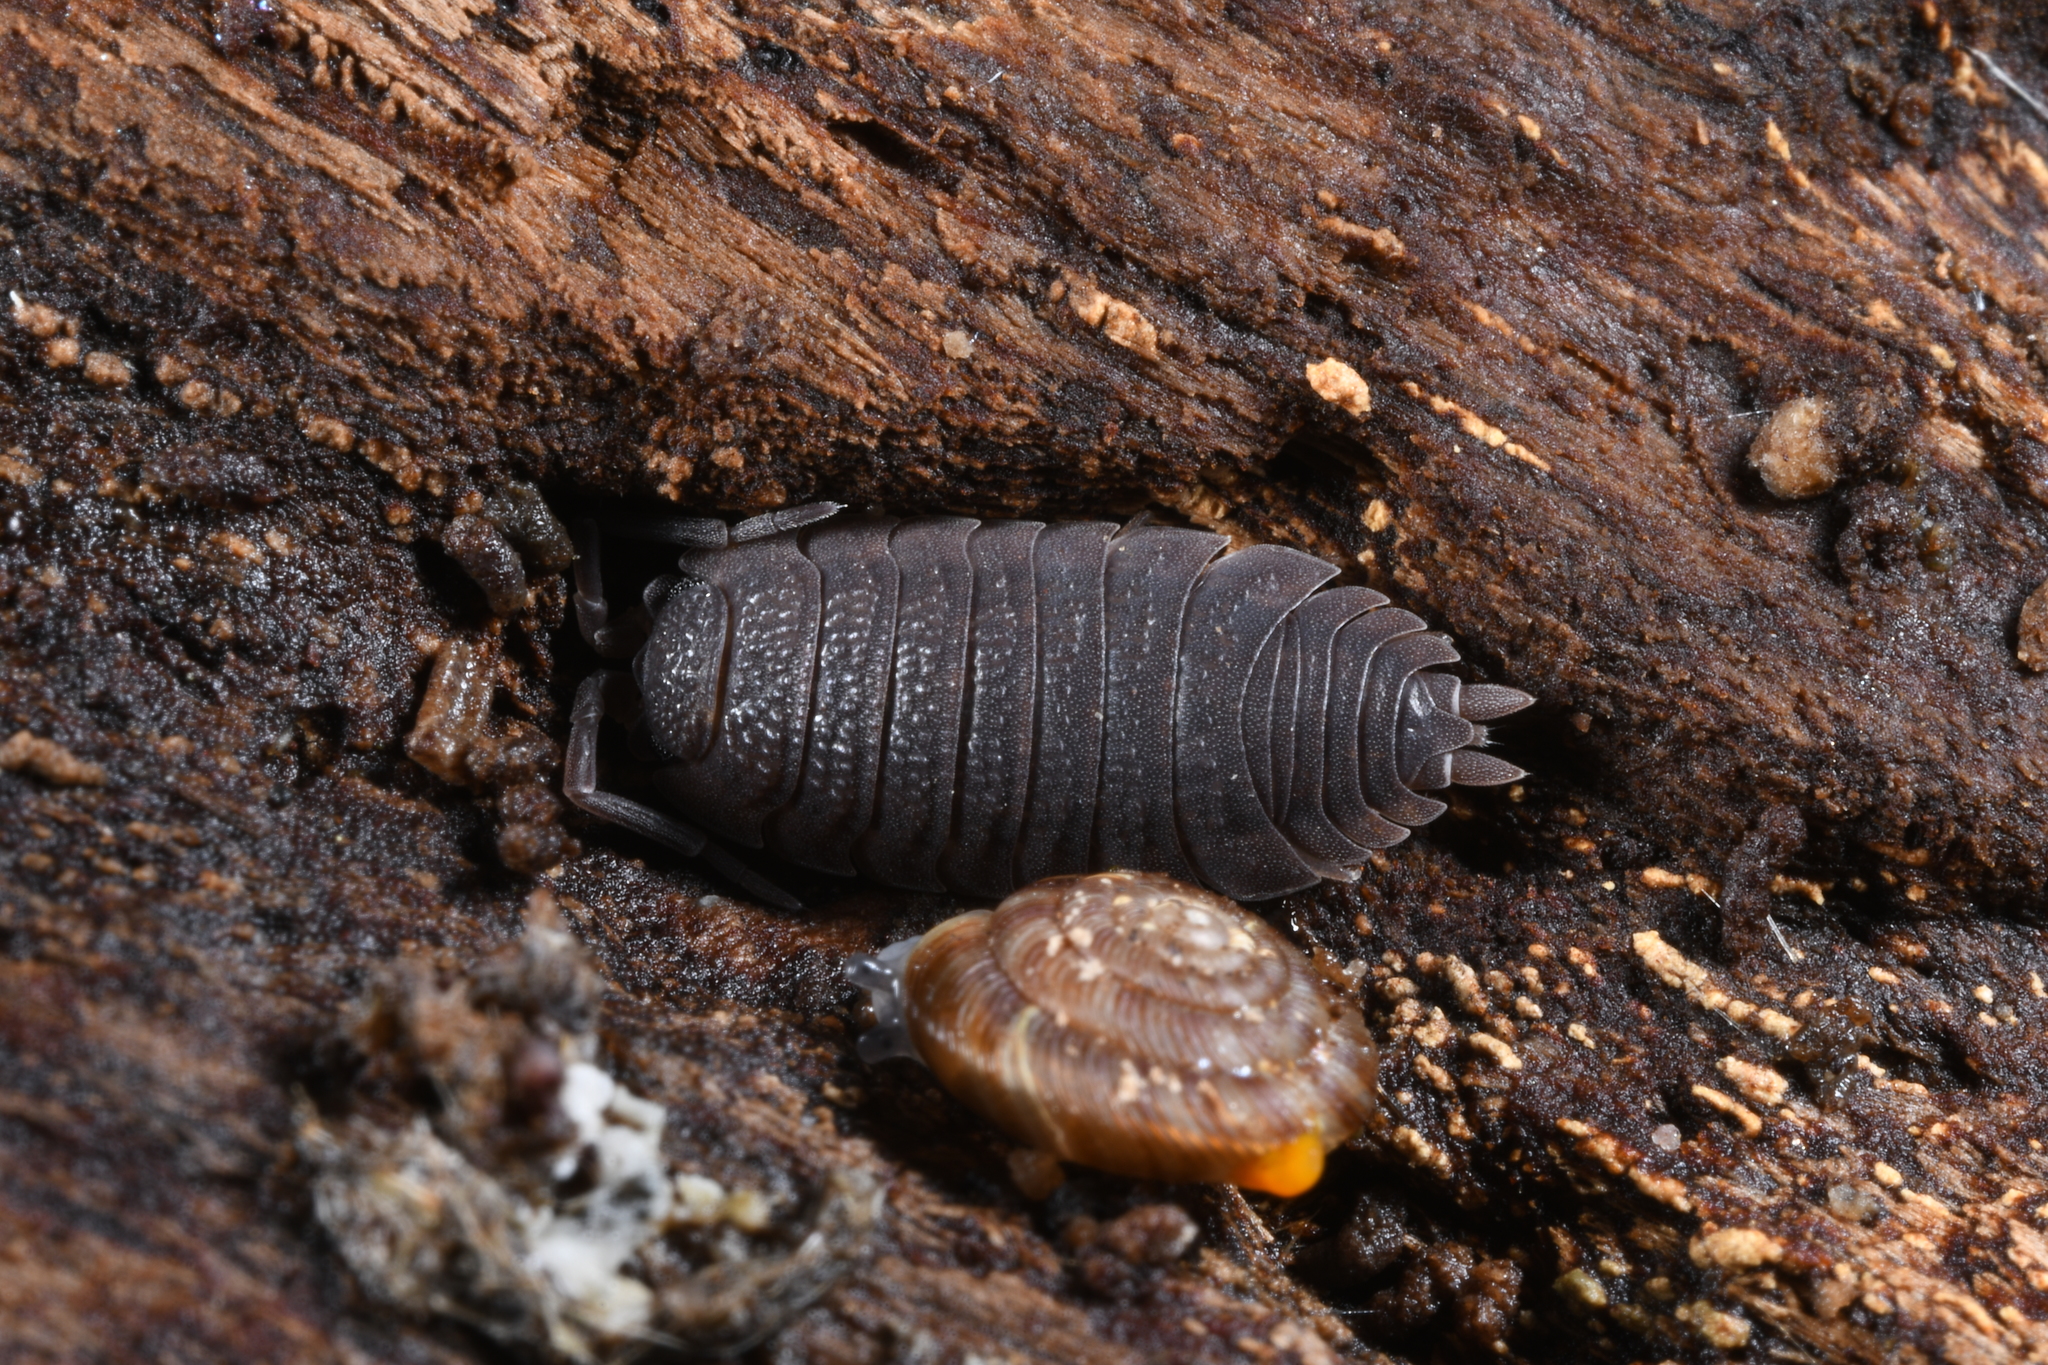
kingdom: Animalia
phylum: Arthropoda
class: Malacostraca
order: Isopoda
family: Porcellionidae
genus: Porcellio
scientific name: Porcellio scaber
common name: Common rough woodlouse
